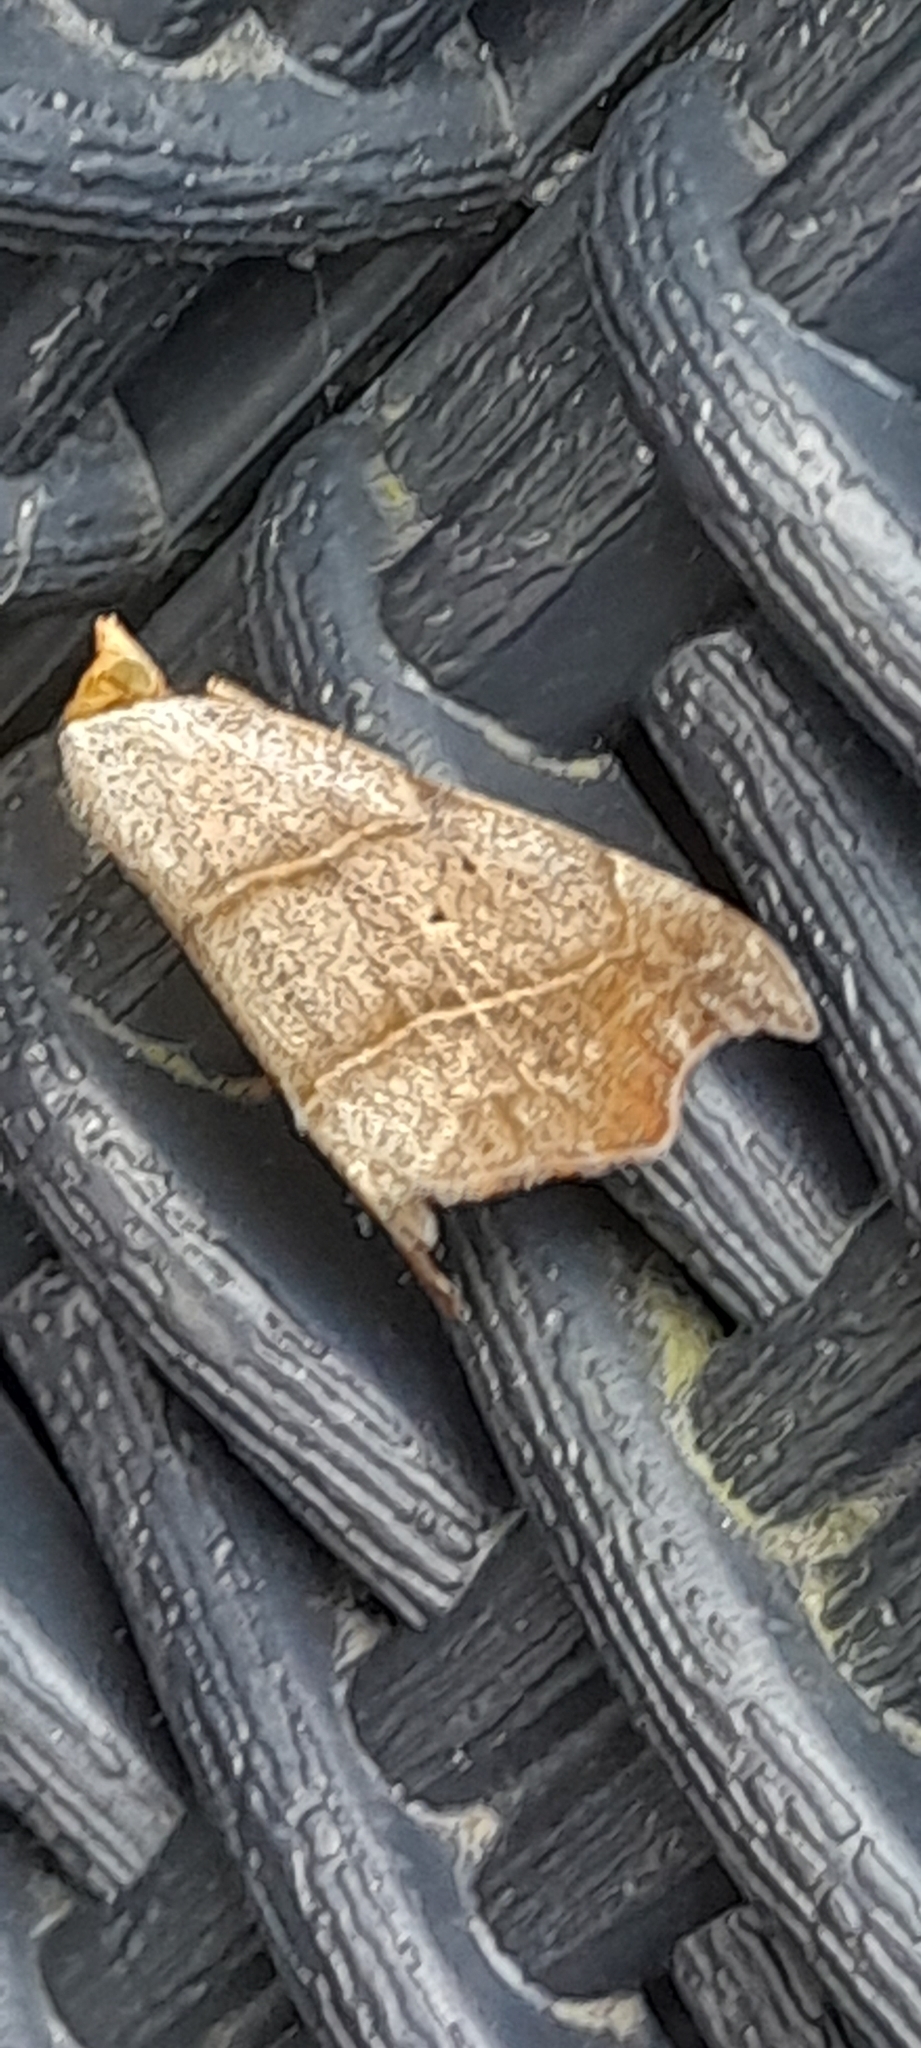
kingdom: Animalia
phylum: Arthropoda
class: Insecta
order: Lepidoptera
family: Erebidae
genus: Laspeyria
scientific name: Laspeyria flexula
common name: Beautiful hook-tip
